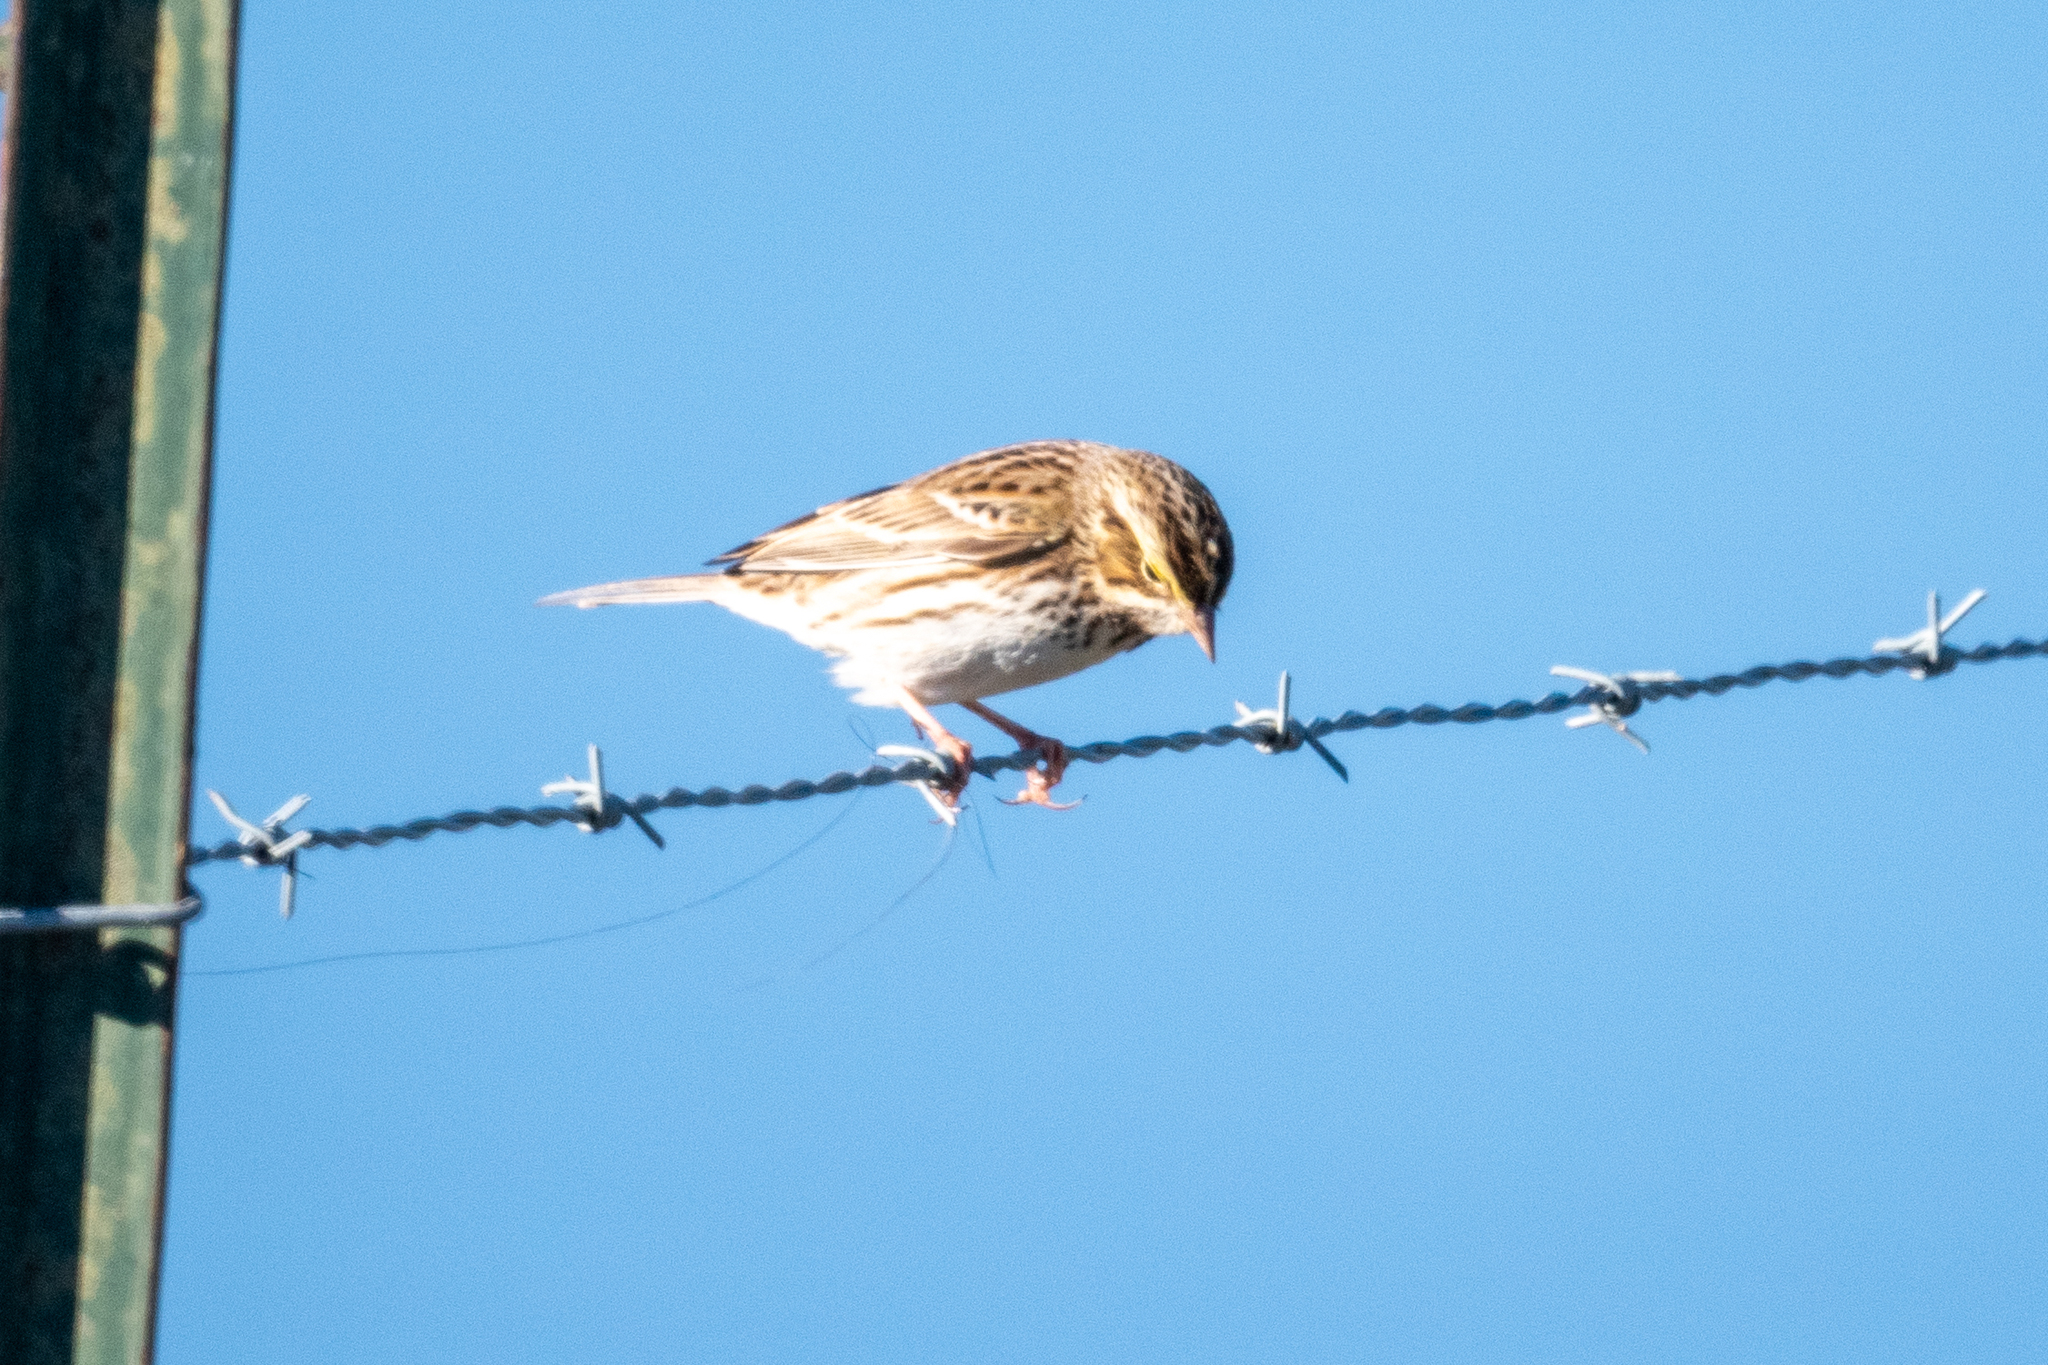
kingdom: Animalia
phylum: Chordata
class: Aves
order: Passeriformes
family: Passerellidae
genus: Passerculus
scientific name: Passerculus sandwichensis
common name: Savannah sparrow
